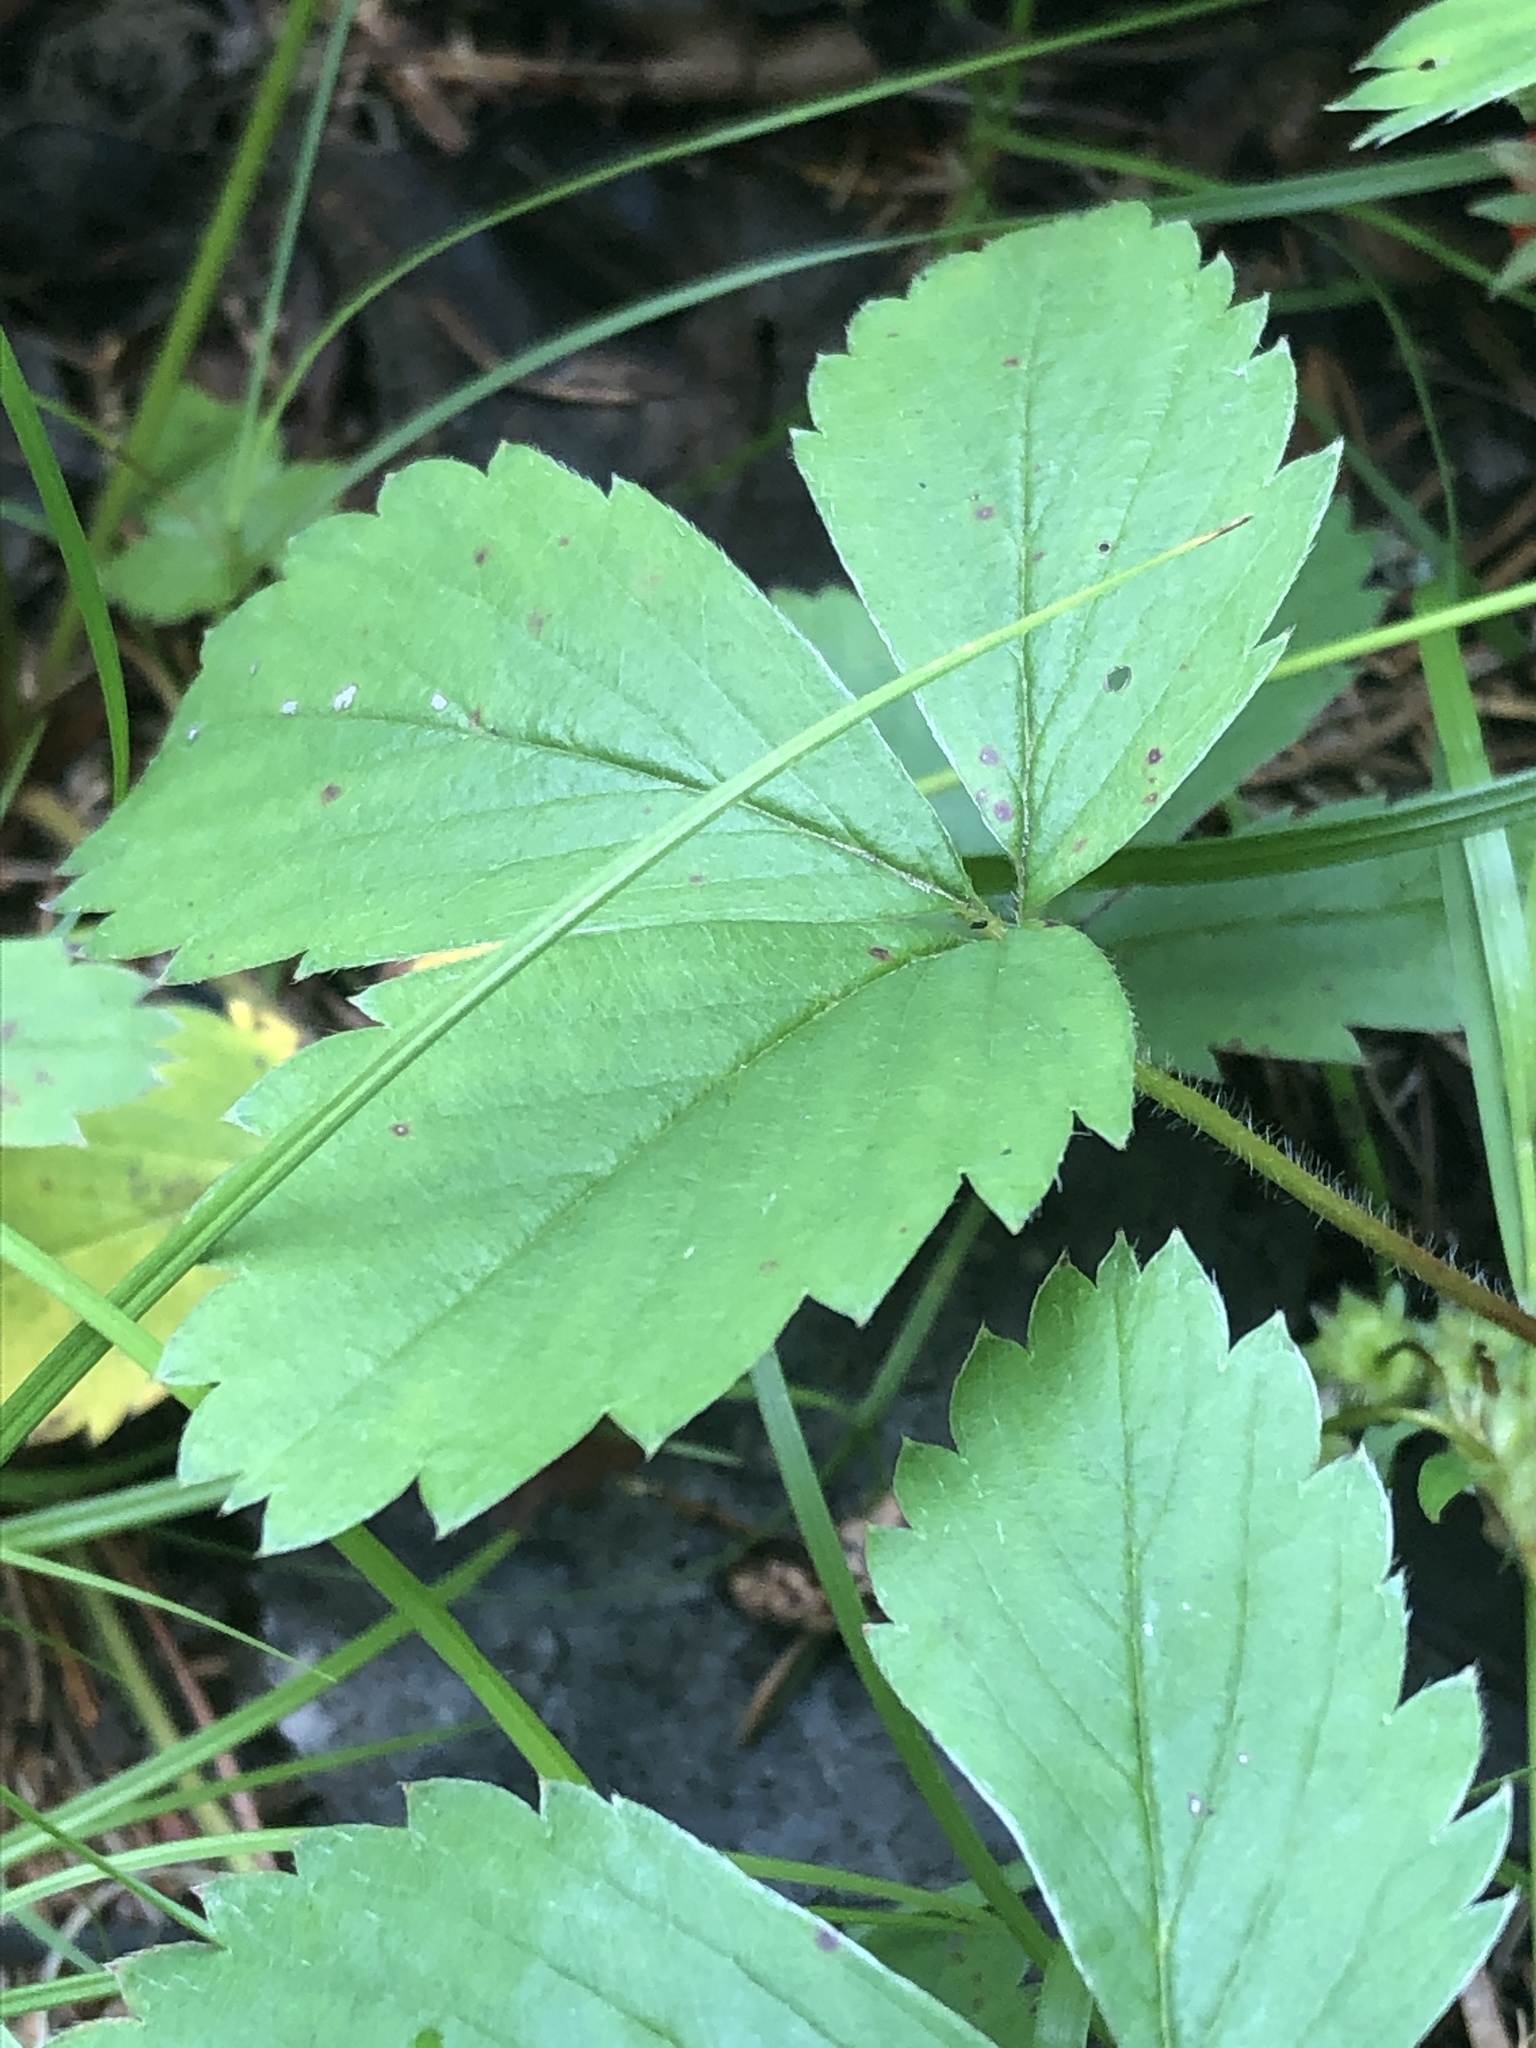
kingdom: Plantae
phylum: Tracheophyta
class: Magnoliopsida
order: Rosales
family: Rosaceae
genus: Fragaria
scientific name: Fragaria virginiana
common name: Thickleaved wild strawberry
